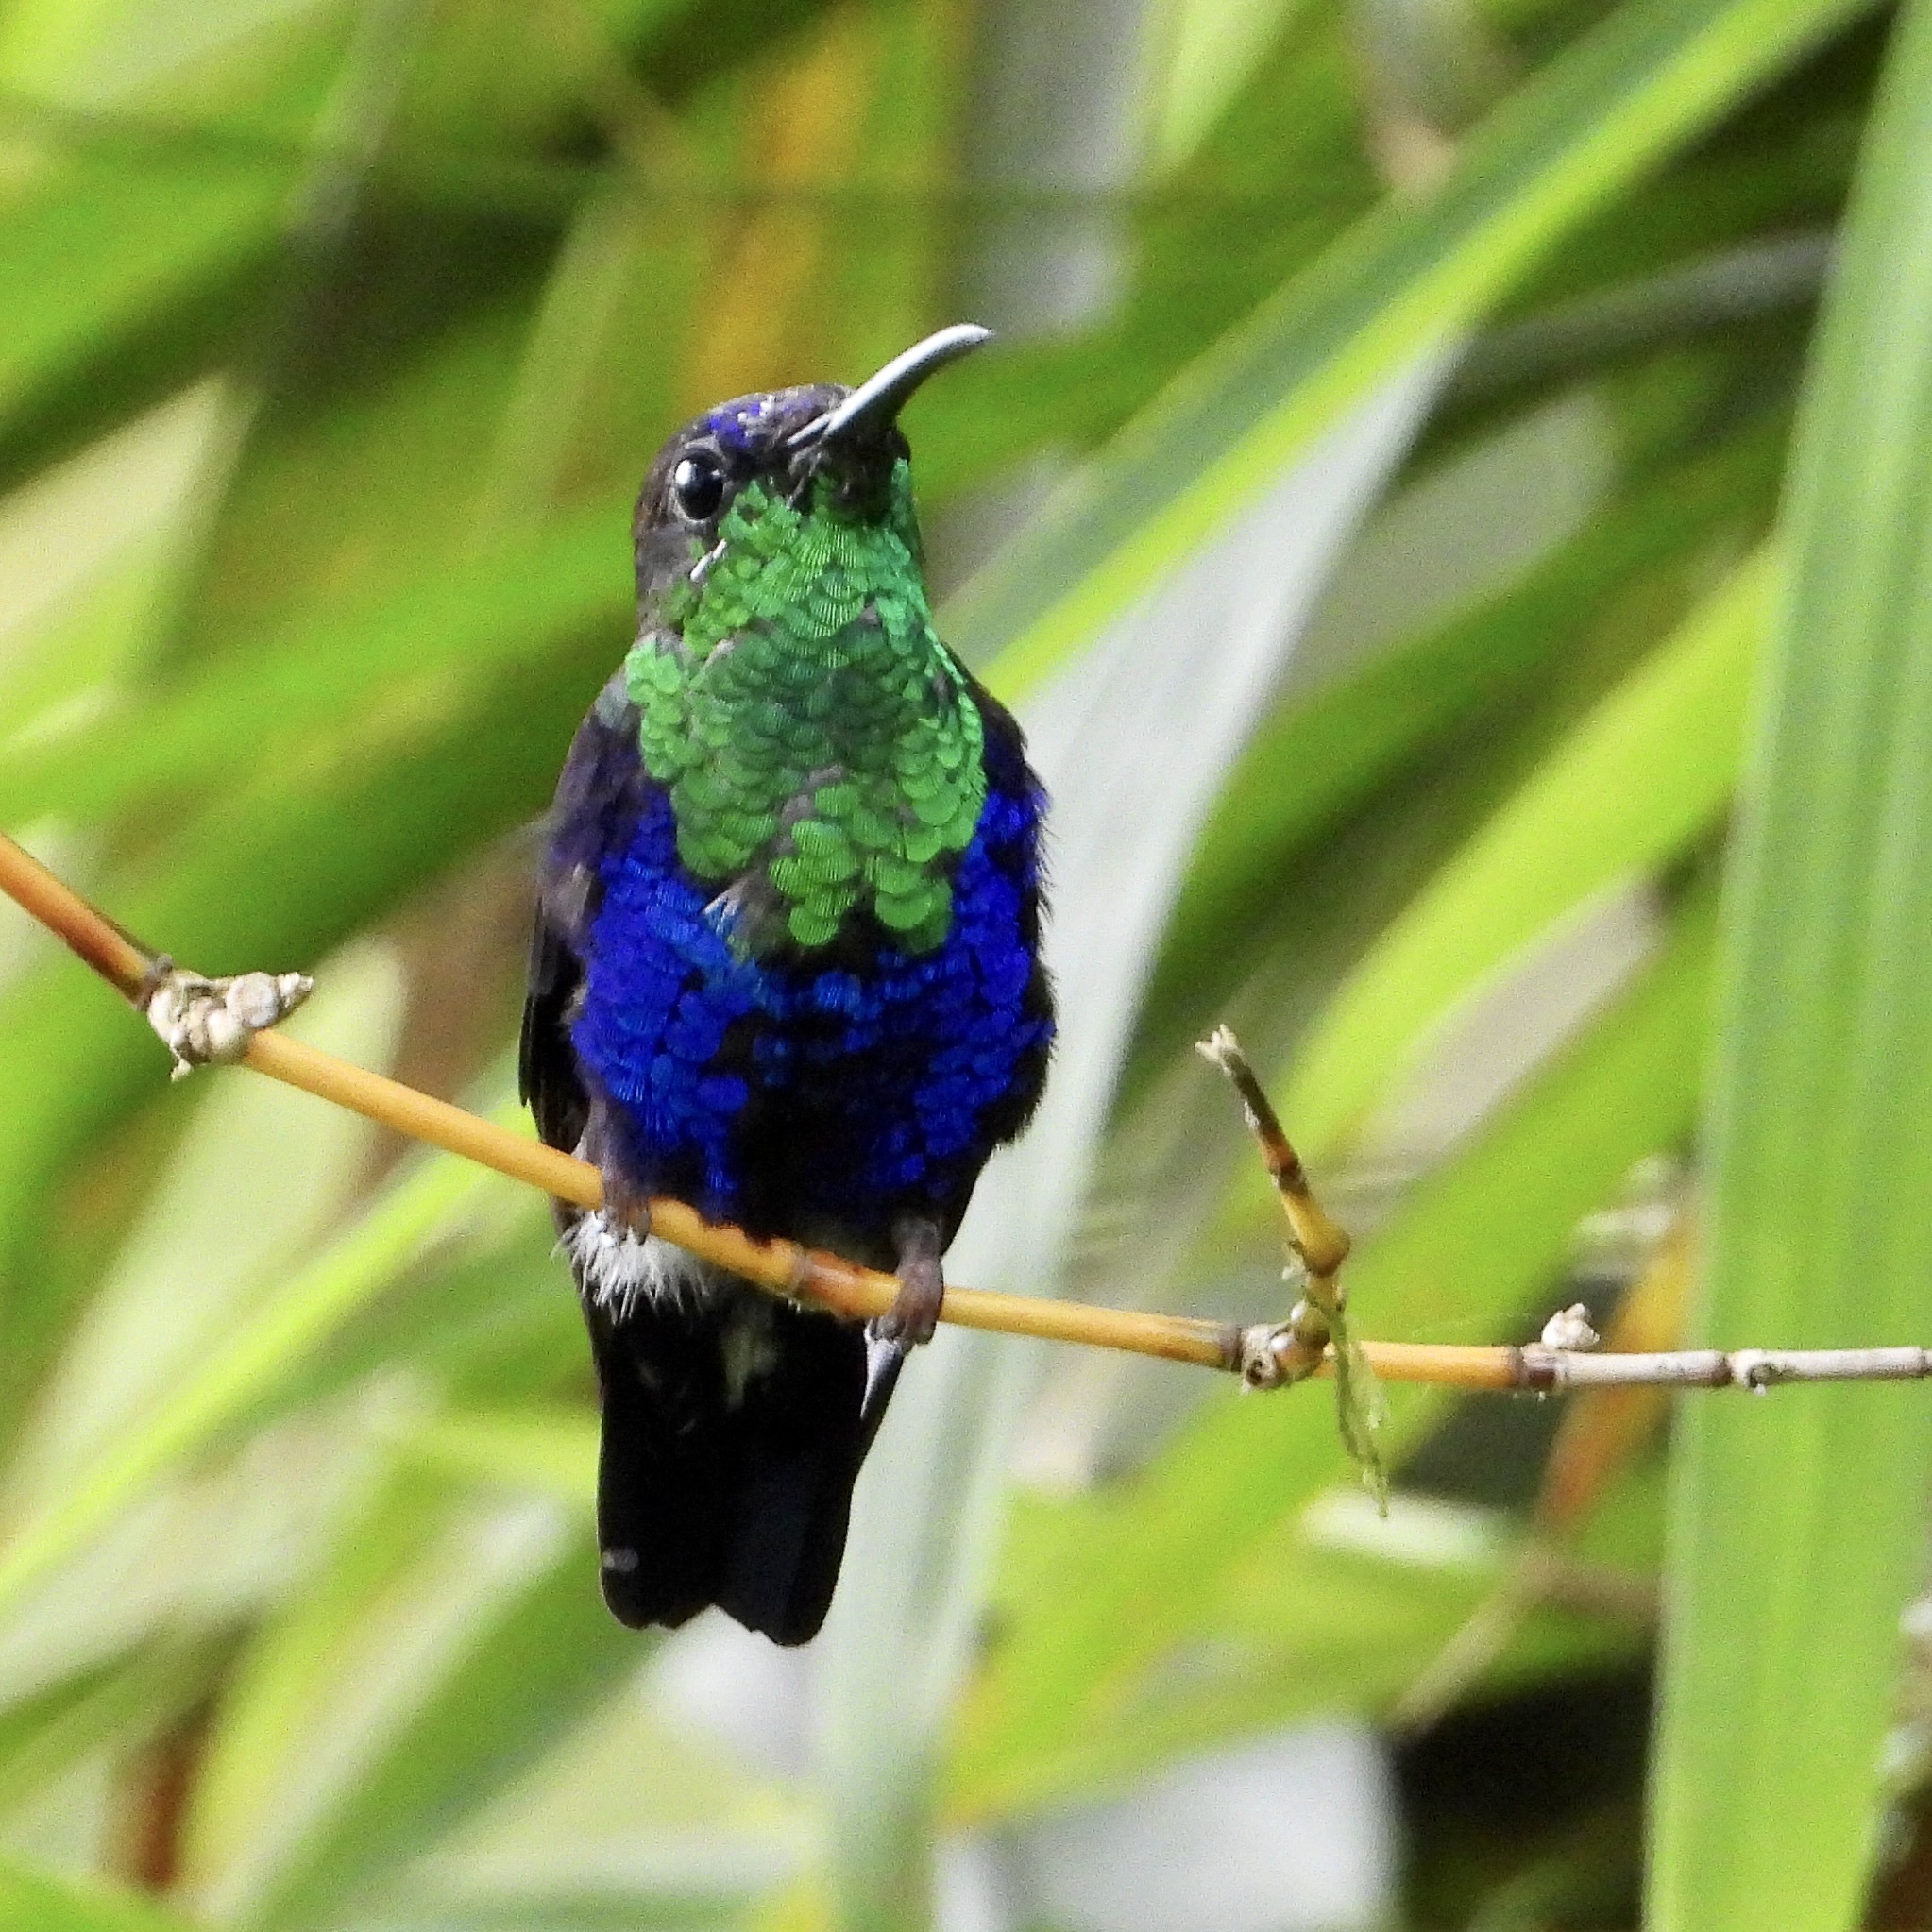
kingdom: Animalia
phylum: Chordata
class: Aves
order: Apodiformes
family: Trochilidae
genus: Thalurania
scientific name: Thalurania colombica
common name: Crowned woodnymph
